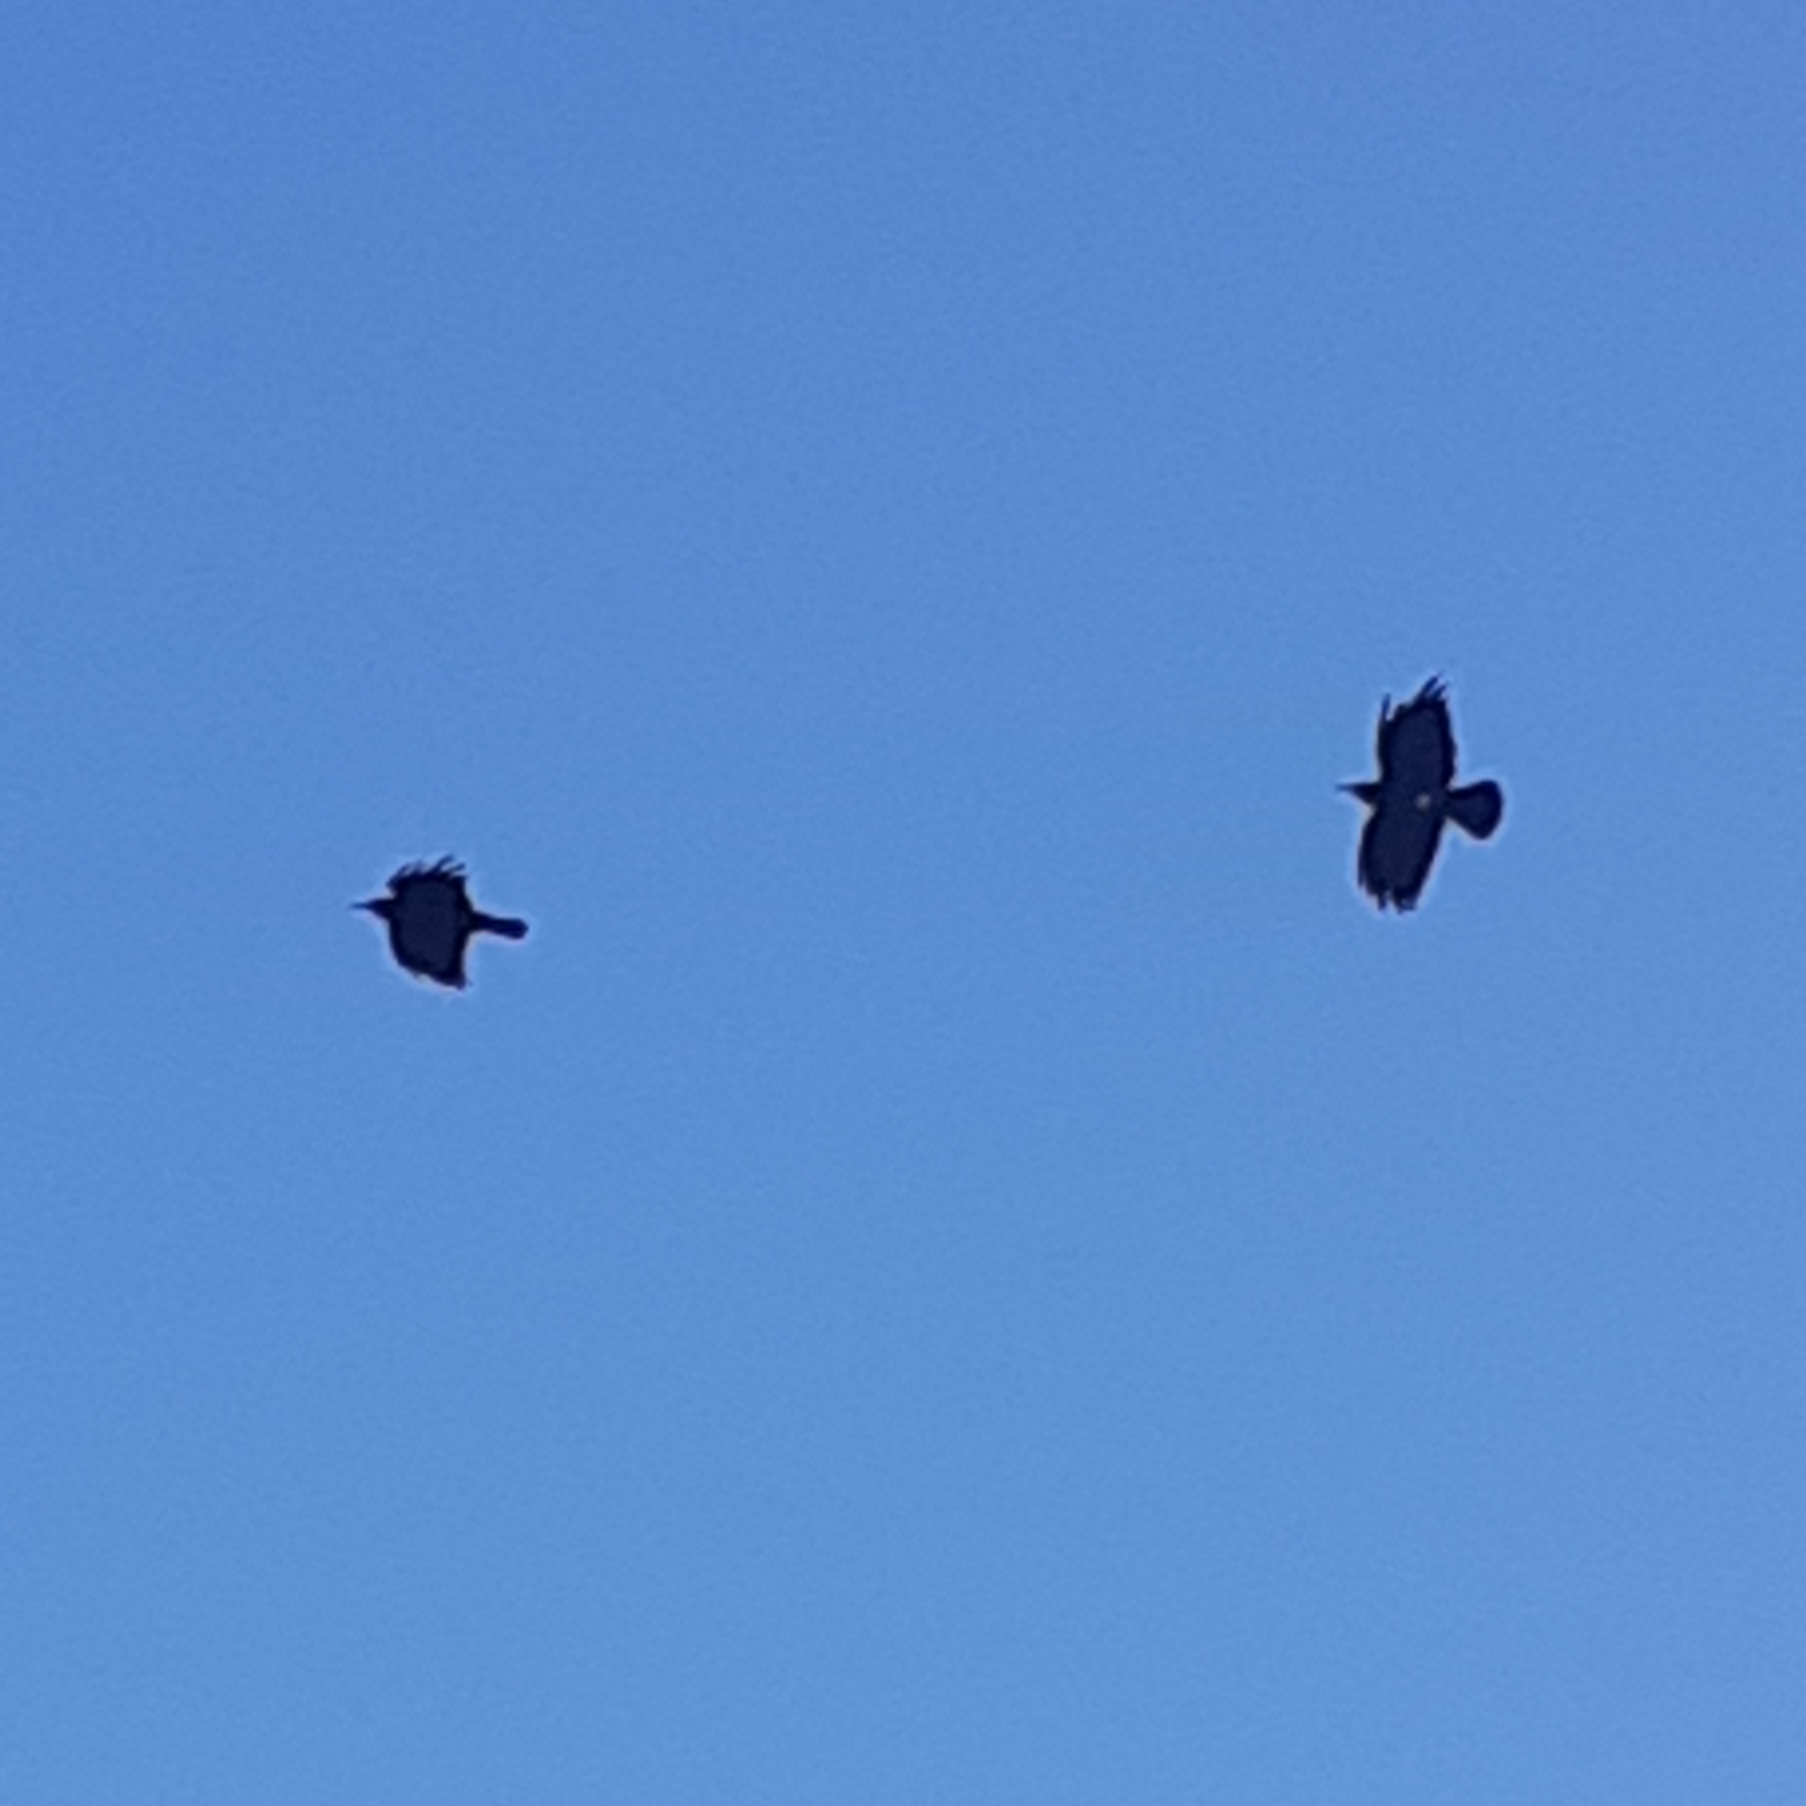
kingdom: Animalia
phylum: Chordata
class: Aves
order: Passeriformes
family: Corvidae
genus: Pyrrhocorax
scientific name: Pyrrhocorax pyrrhocorax
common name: Red-billed chough
